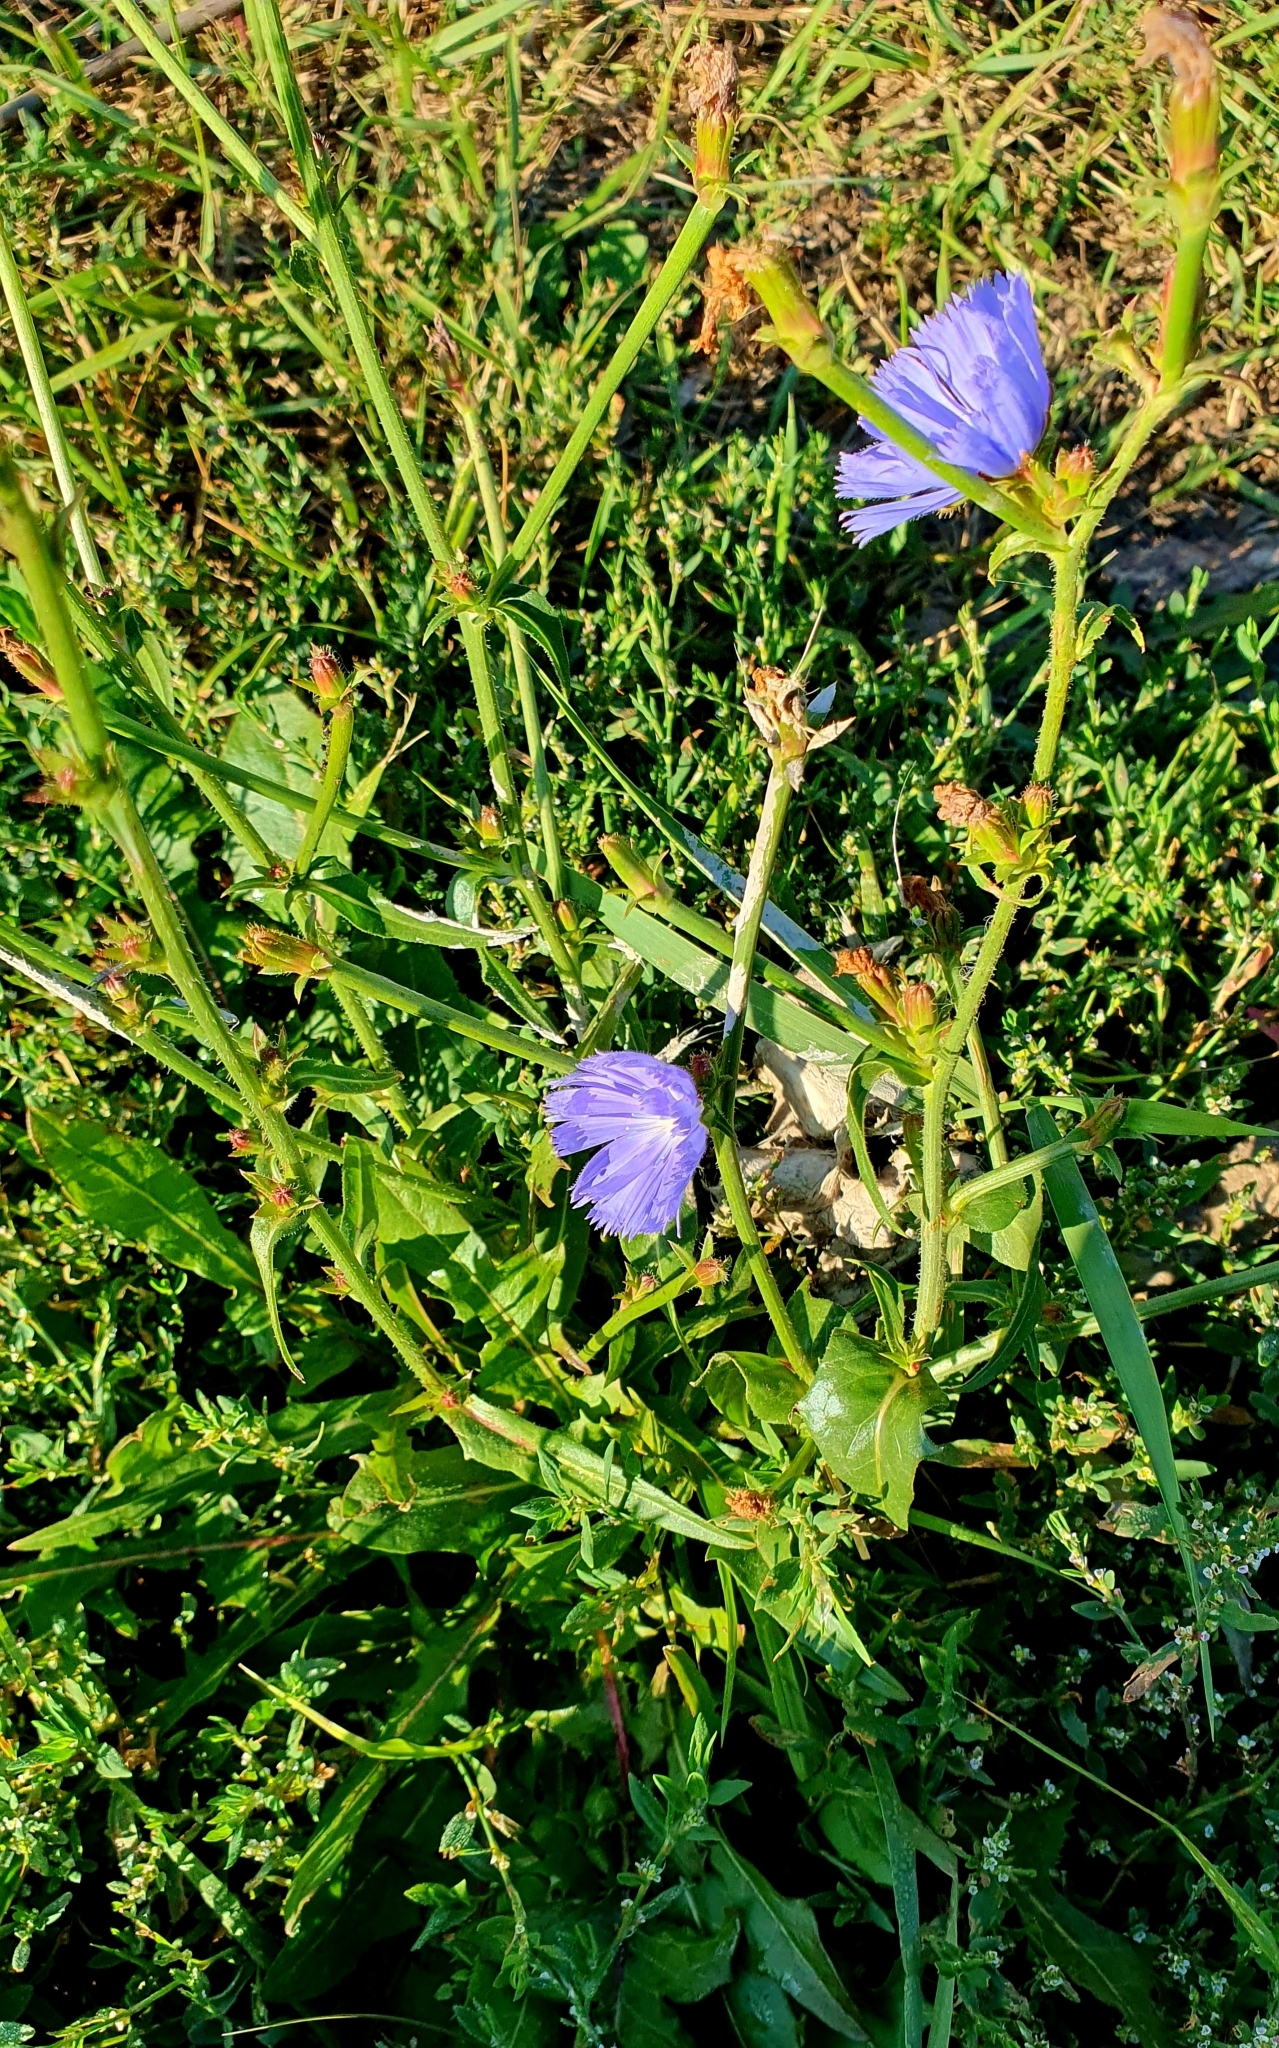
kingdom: Plantae
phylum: Tracheophyta
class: Magnoliopsida
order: Asterales
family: Asteraceae
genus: Cichorium
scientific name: Cichorium intybus
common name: Chicory
